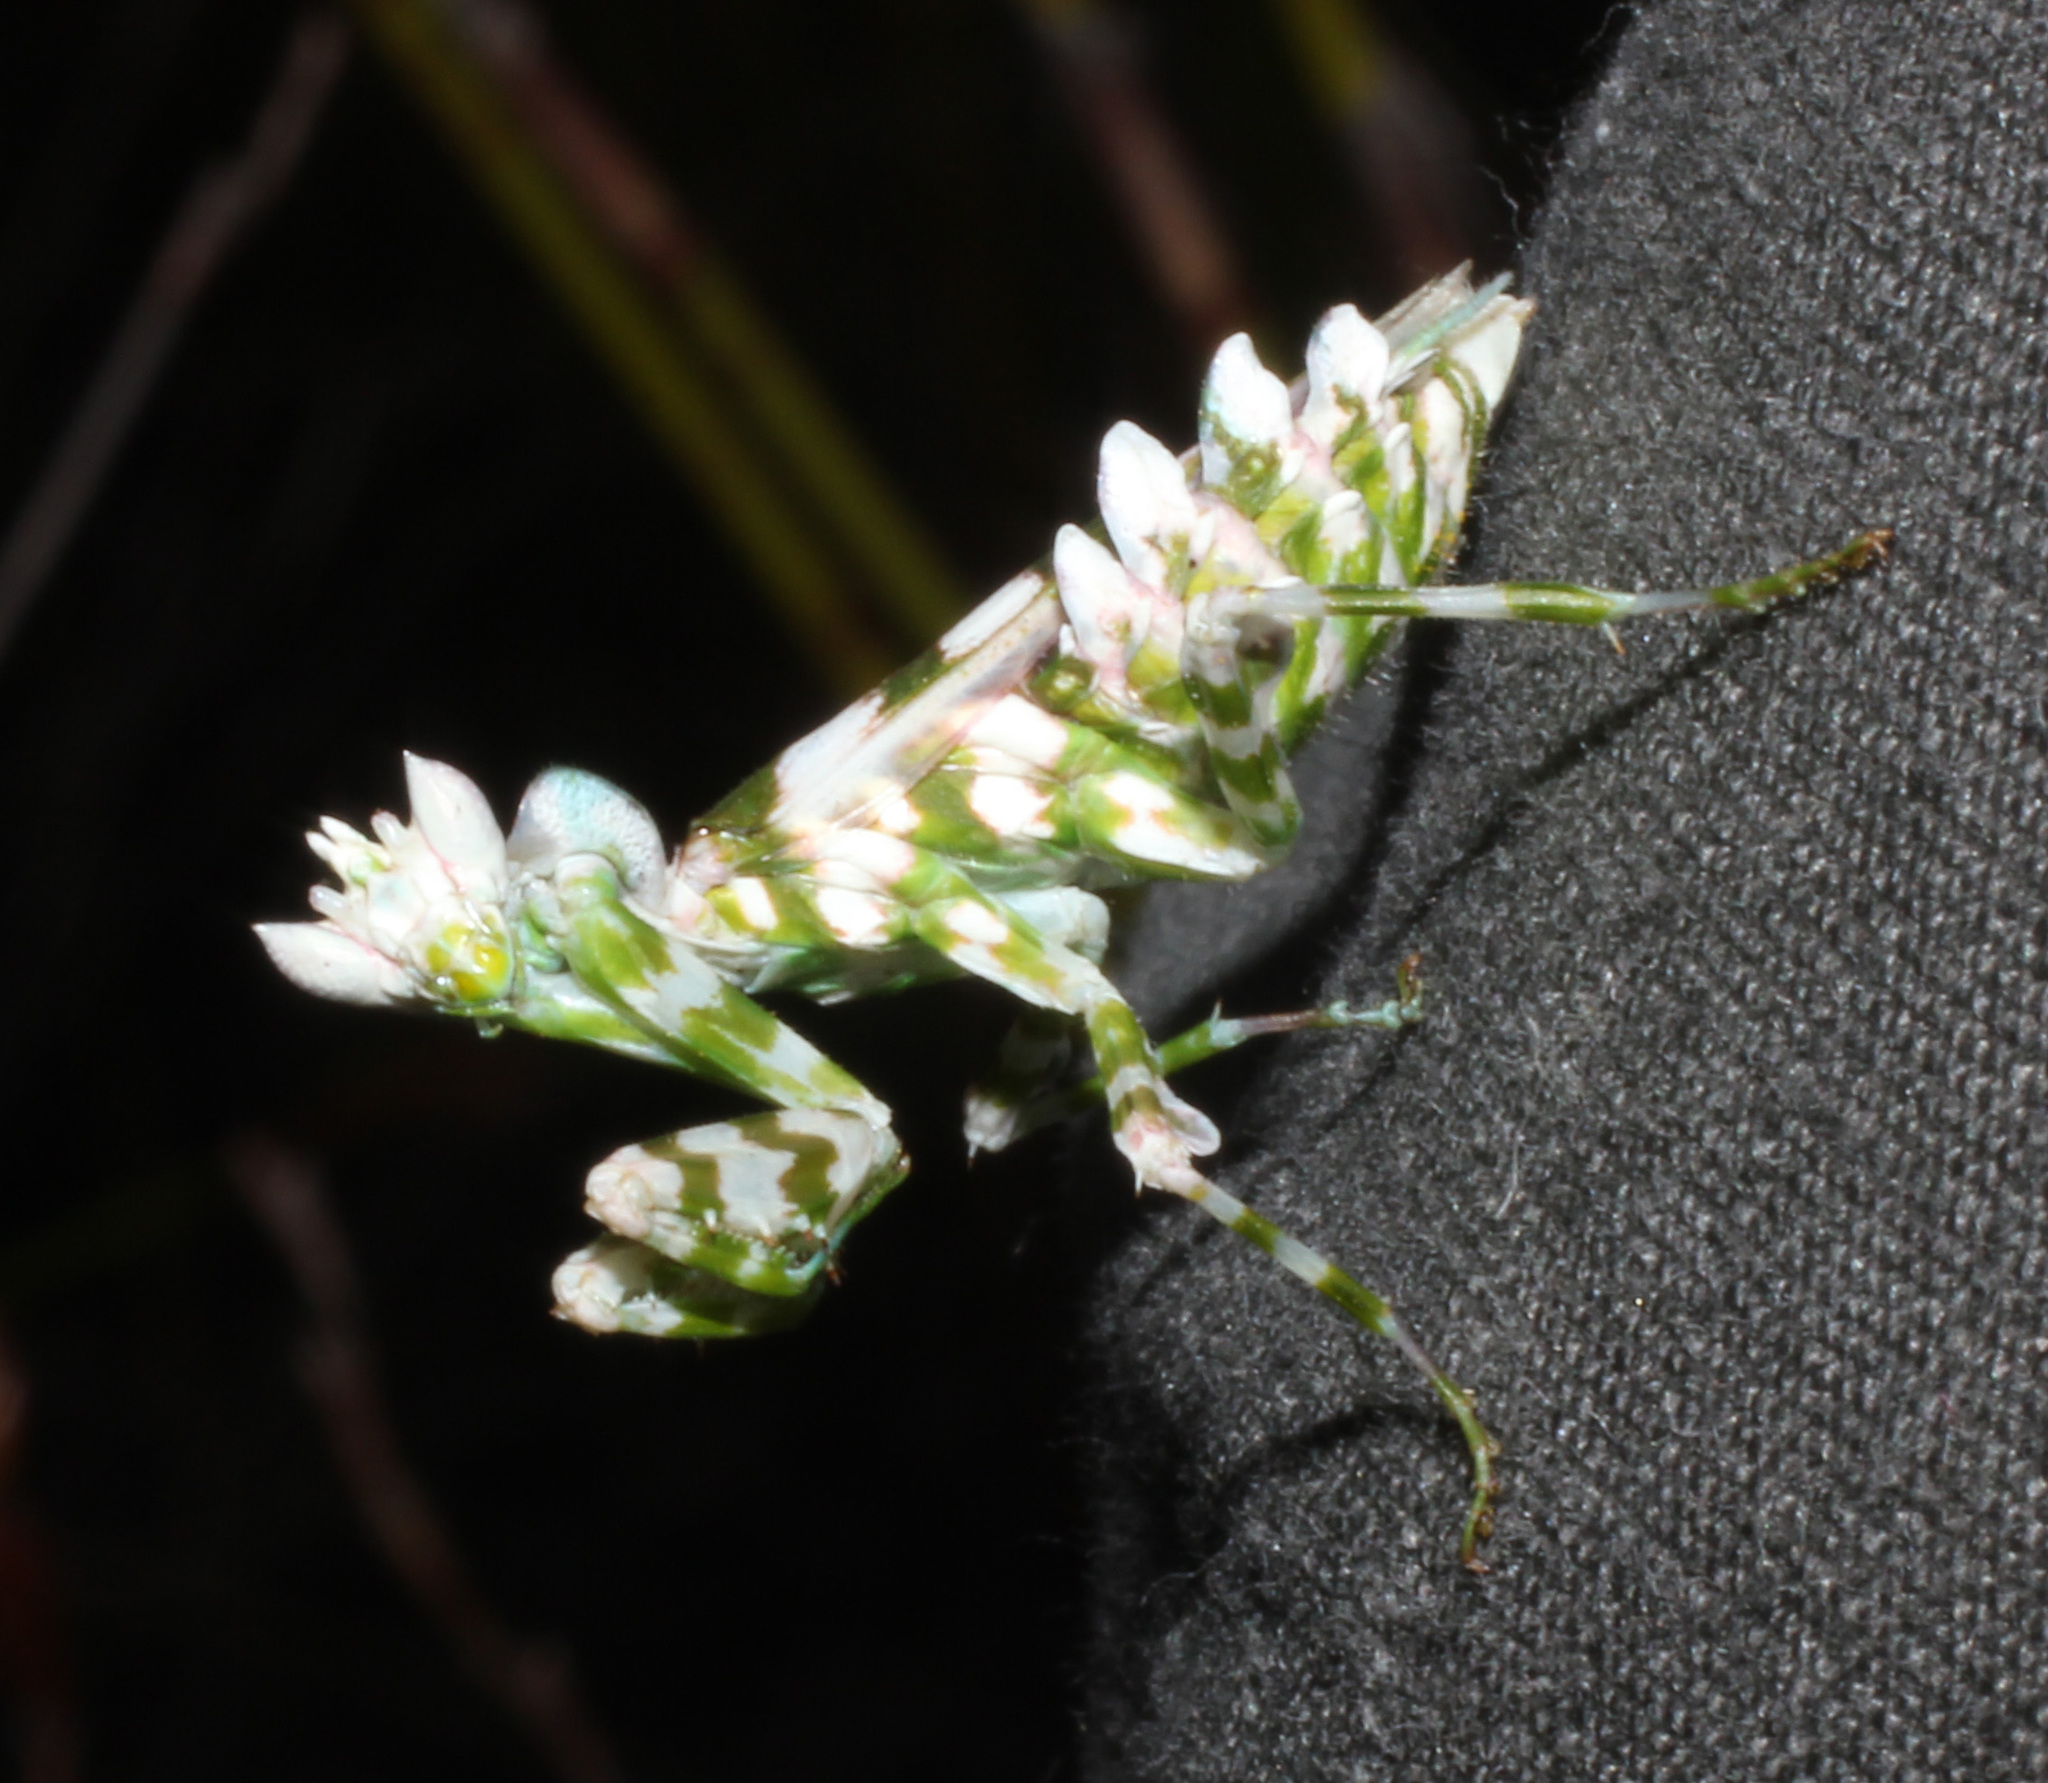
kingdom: Animalia
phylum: Arthropoda
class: Insecta
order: Mantodea
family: Galinthiadidae
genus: Harpagomantis
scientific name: Harpagomantis tricolor
